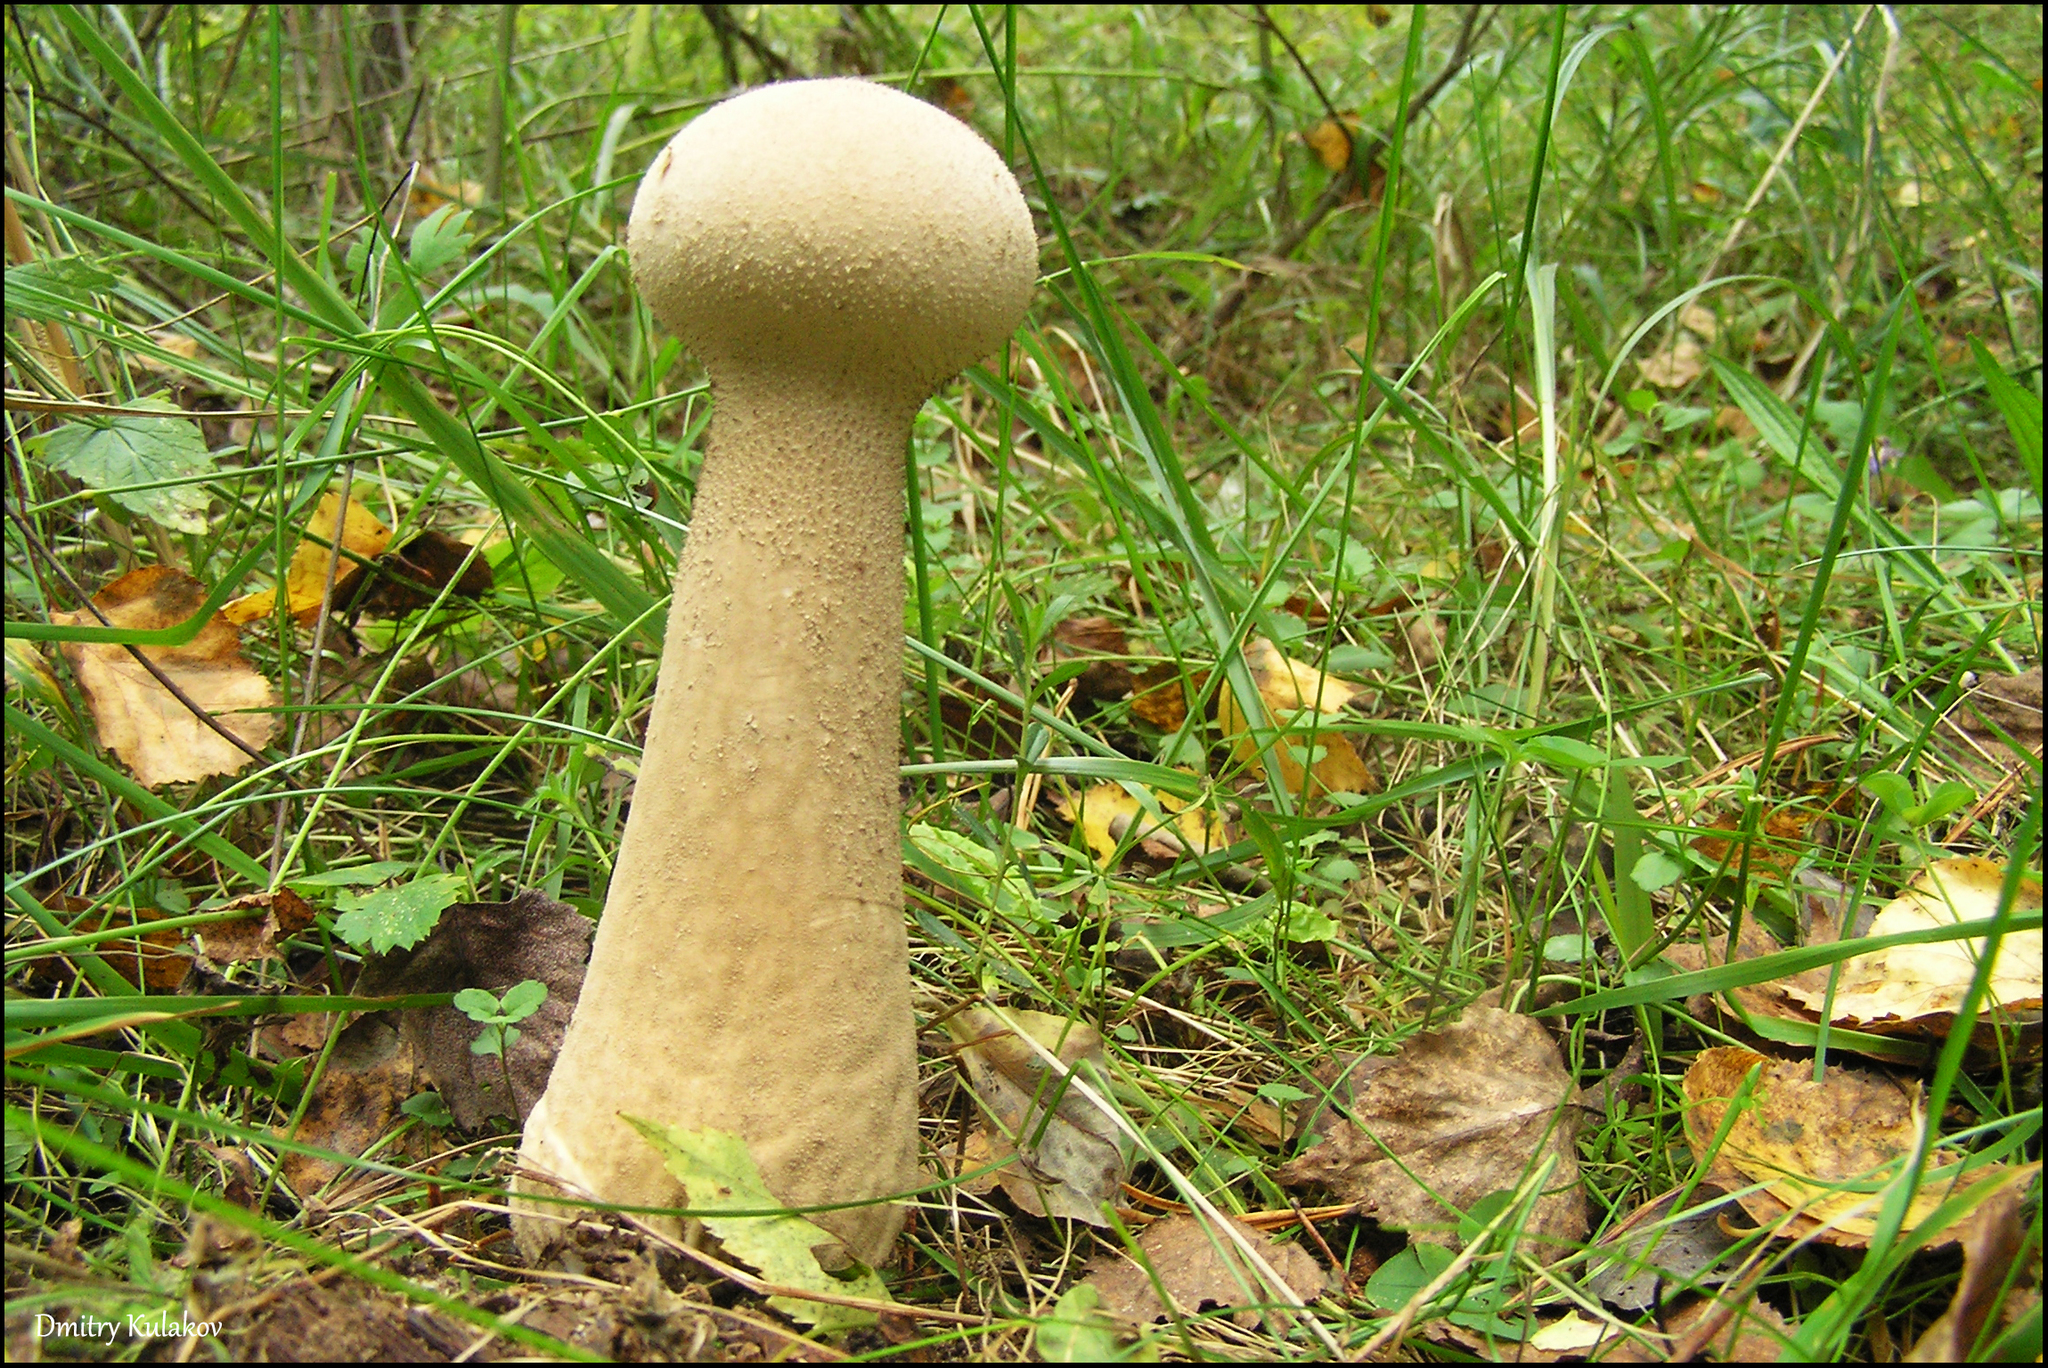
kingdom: Fungi
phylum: Basidiomycota
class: Agaricomycetes
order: Agaricales
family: Lycoperdaceae
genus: Lycoperdon
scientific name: Lycoperdon excipuliforme
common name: Pestle puffball
